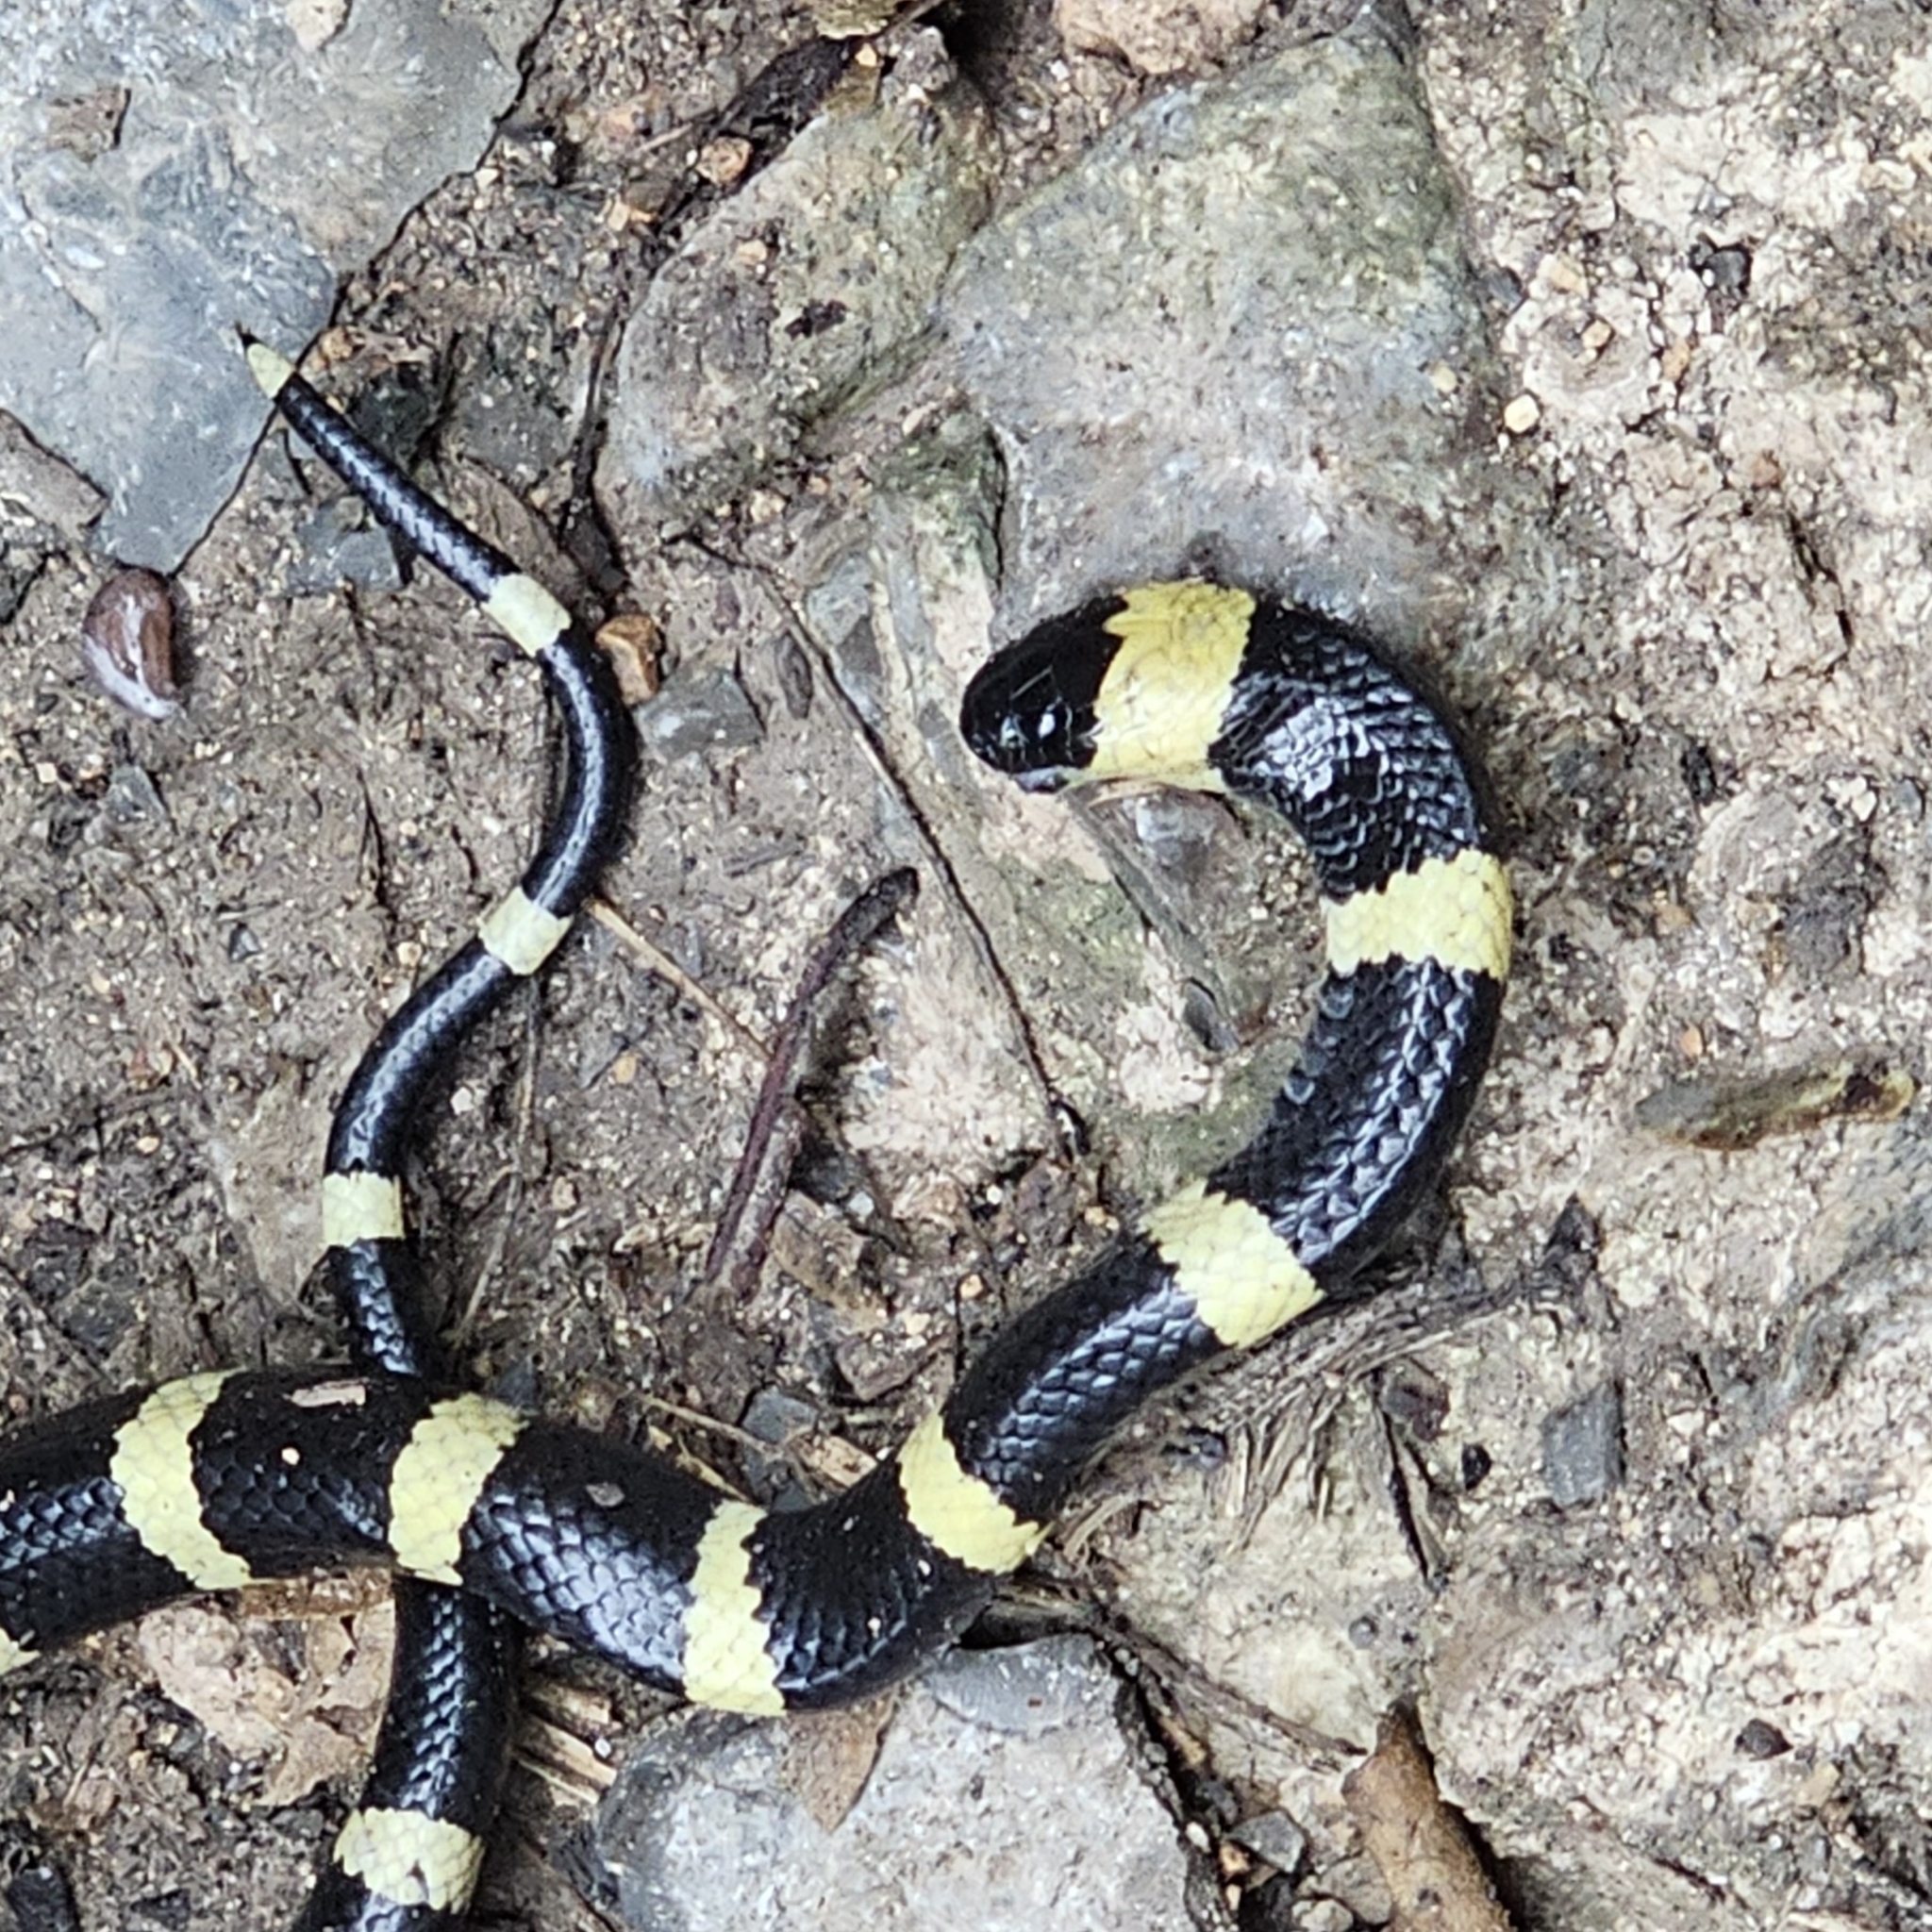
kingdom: Animalia
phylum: Chordata
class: Squamata
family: Colubridae
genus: Geophis
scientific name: Geophis
